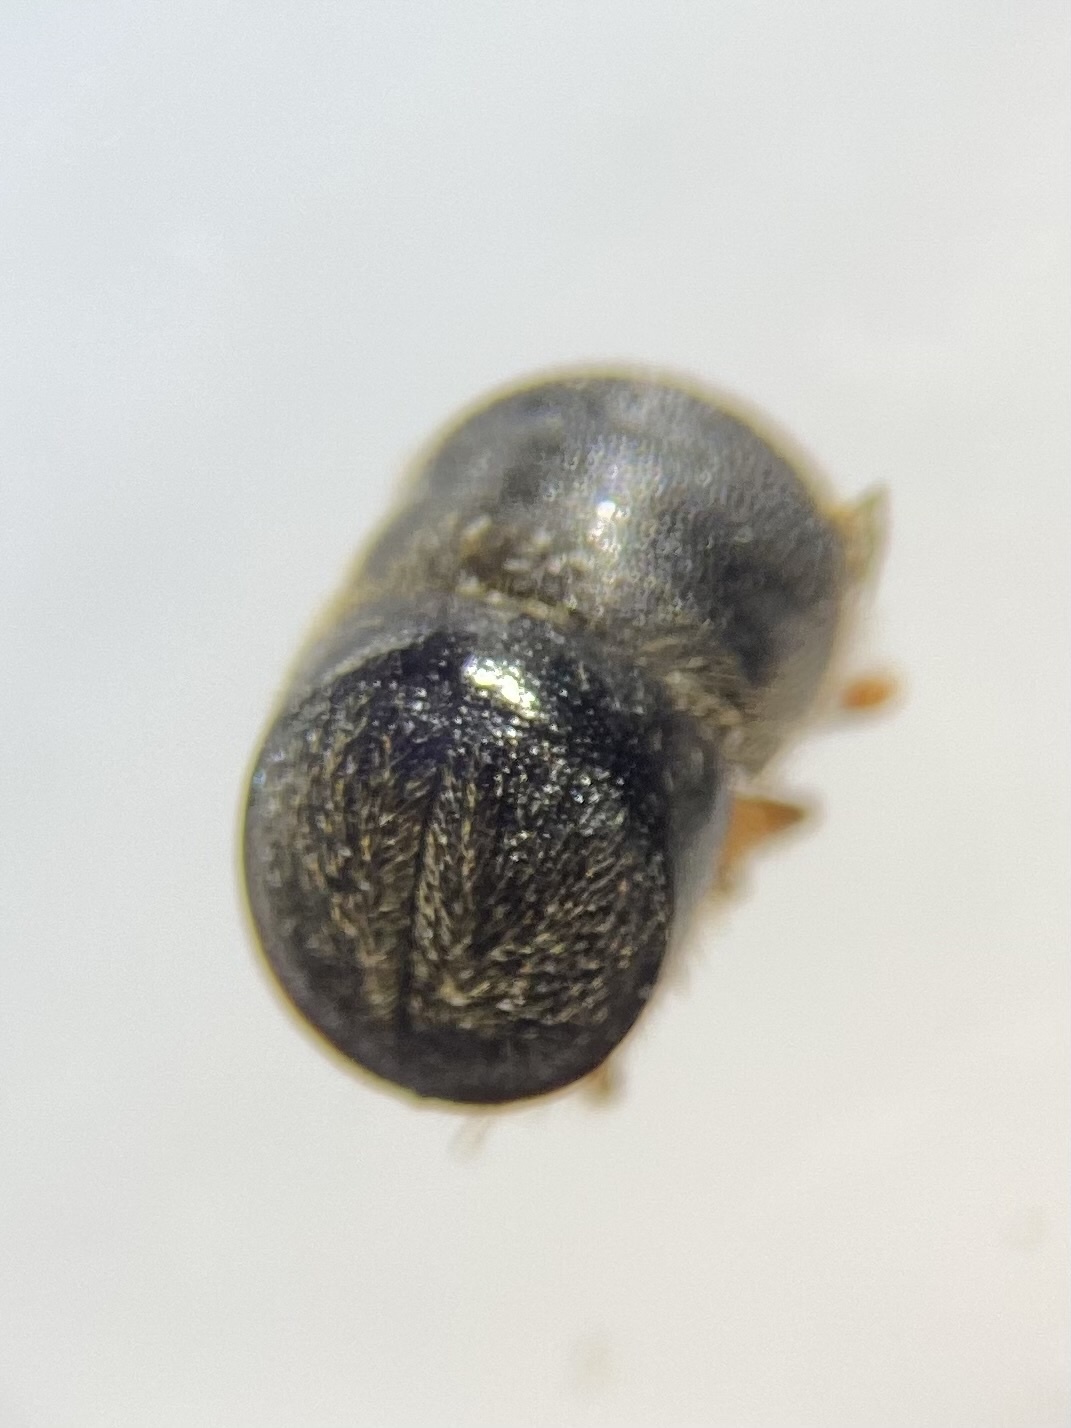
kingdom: Animalia
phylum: Arthropoda
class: Insecta
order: Coleoptera
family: Curculionidae
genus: Cnestus
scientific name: Cnestus mutilatus
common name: Camphor shot borer
